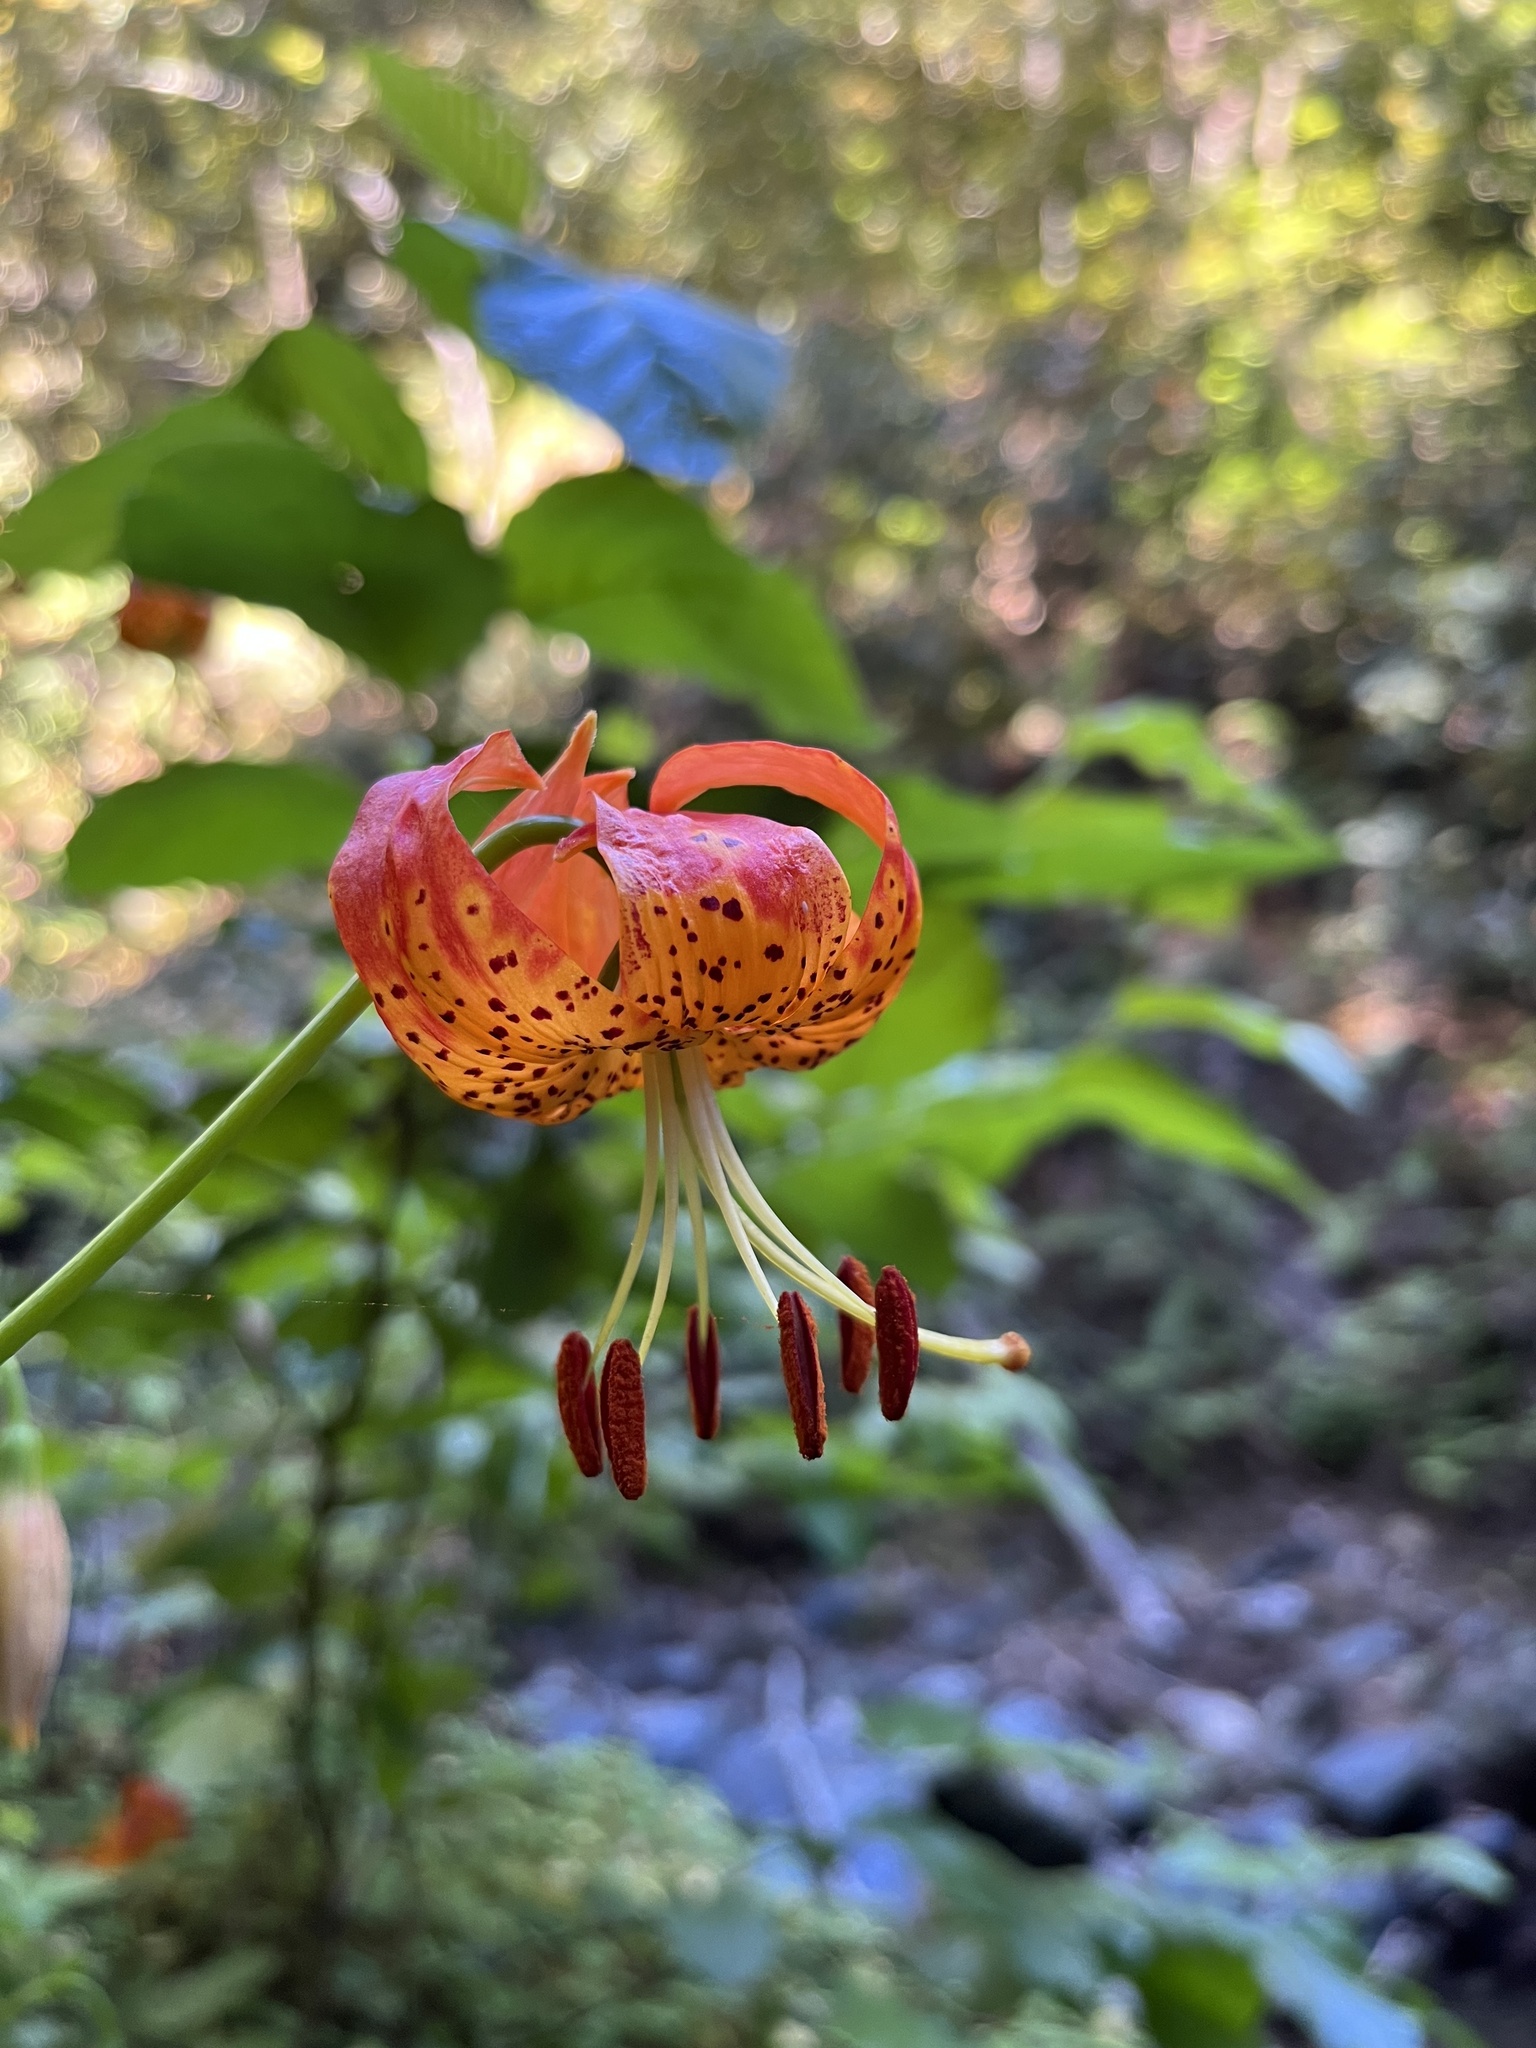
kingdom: Plantae
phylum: Tracheophyta
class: Liliopsida
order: Liliales
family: Liliaceae
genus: Lilium
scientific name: Lilium pardalinum
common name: Panther lily
